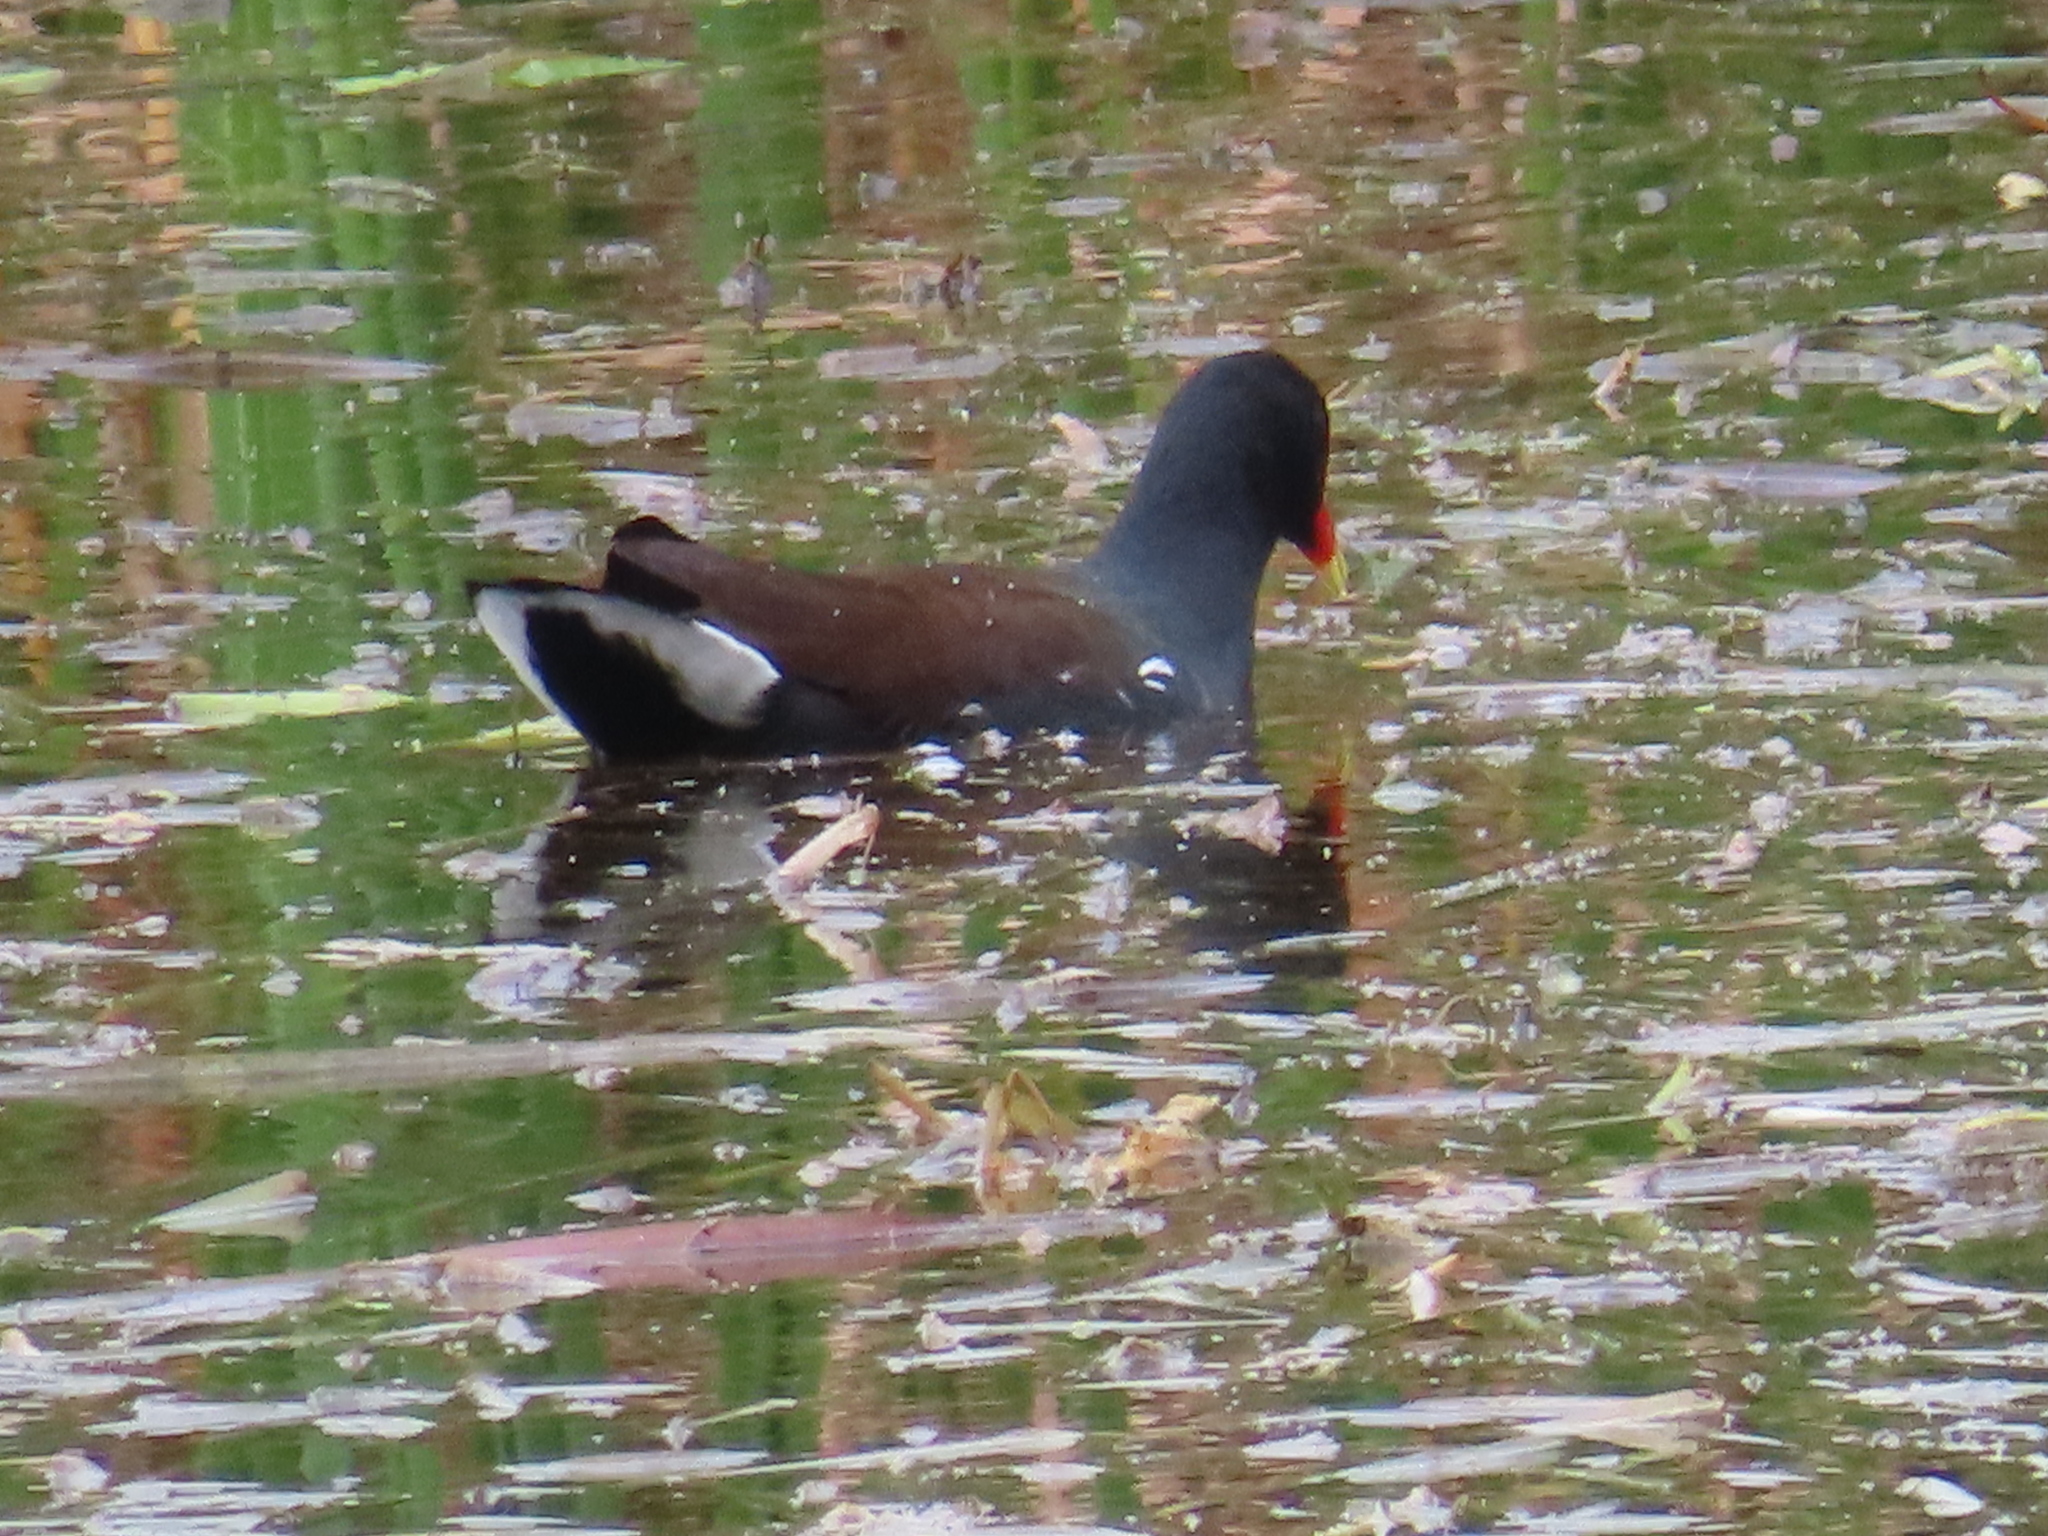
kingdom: Animalia
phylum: Chordata
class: Aves
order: Gruiformes
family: Rallidae
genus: Gallinula
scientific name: Gallinula chloropus
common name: Common moorhen
